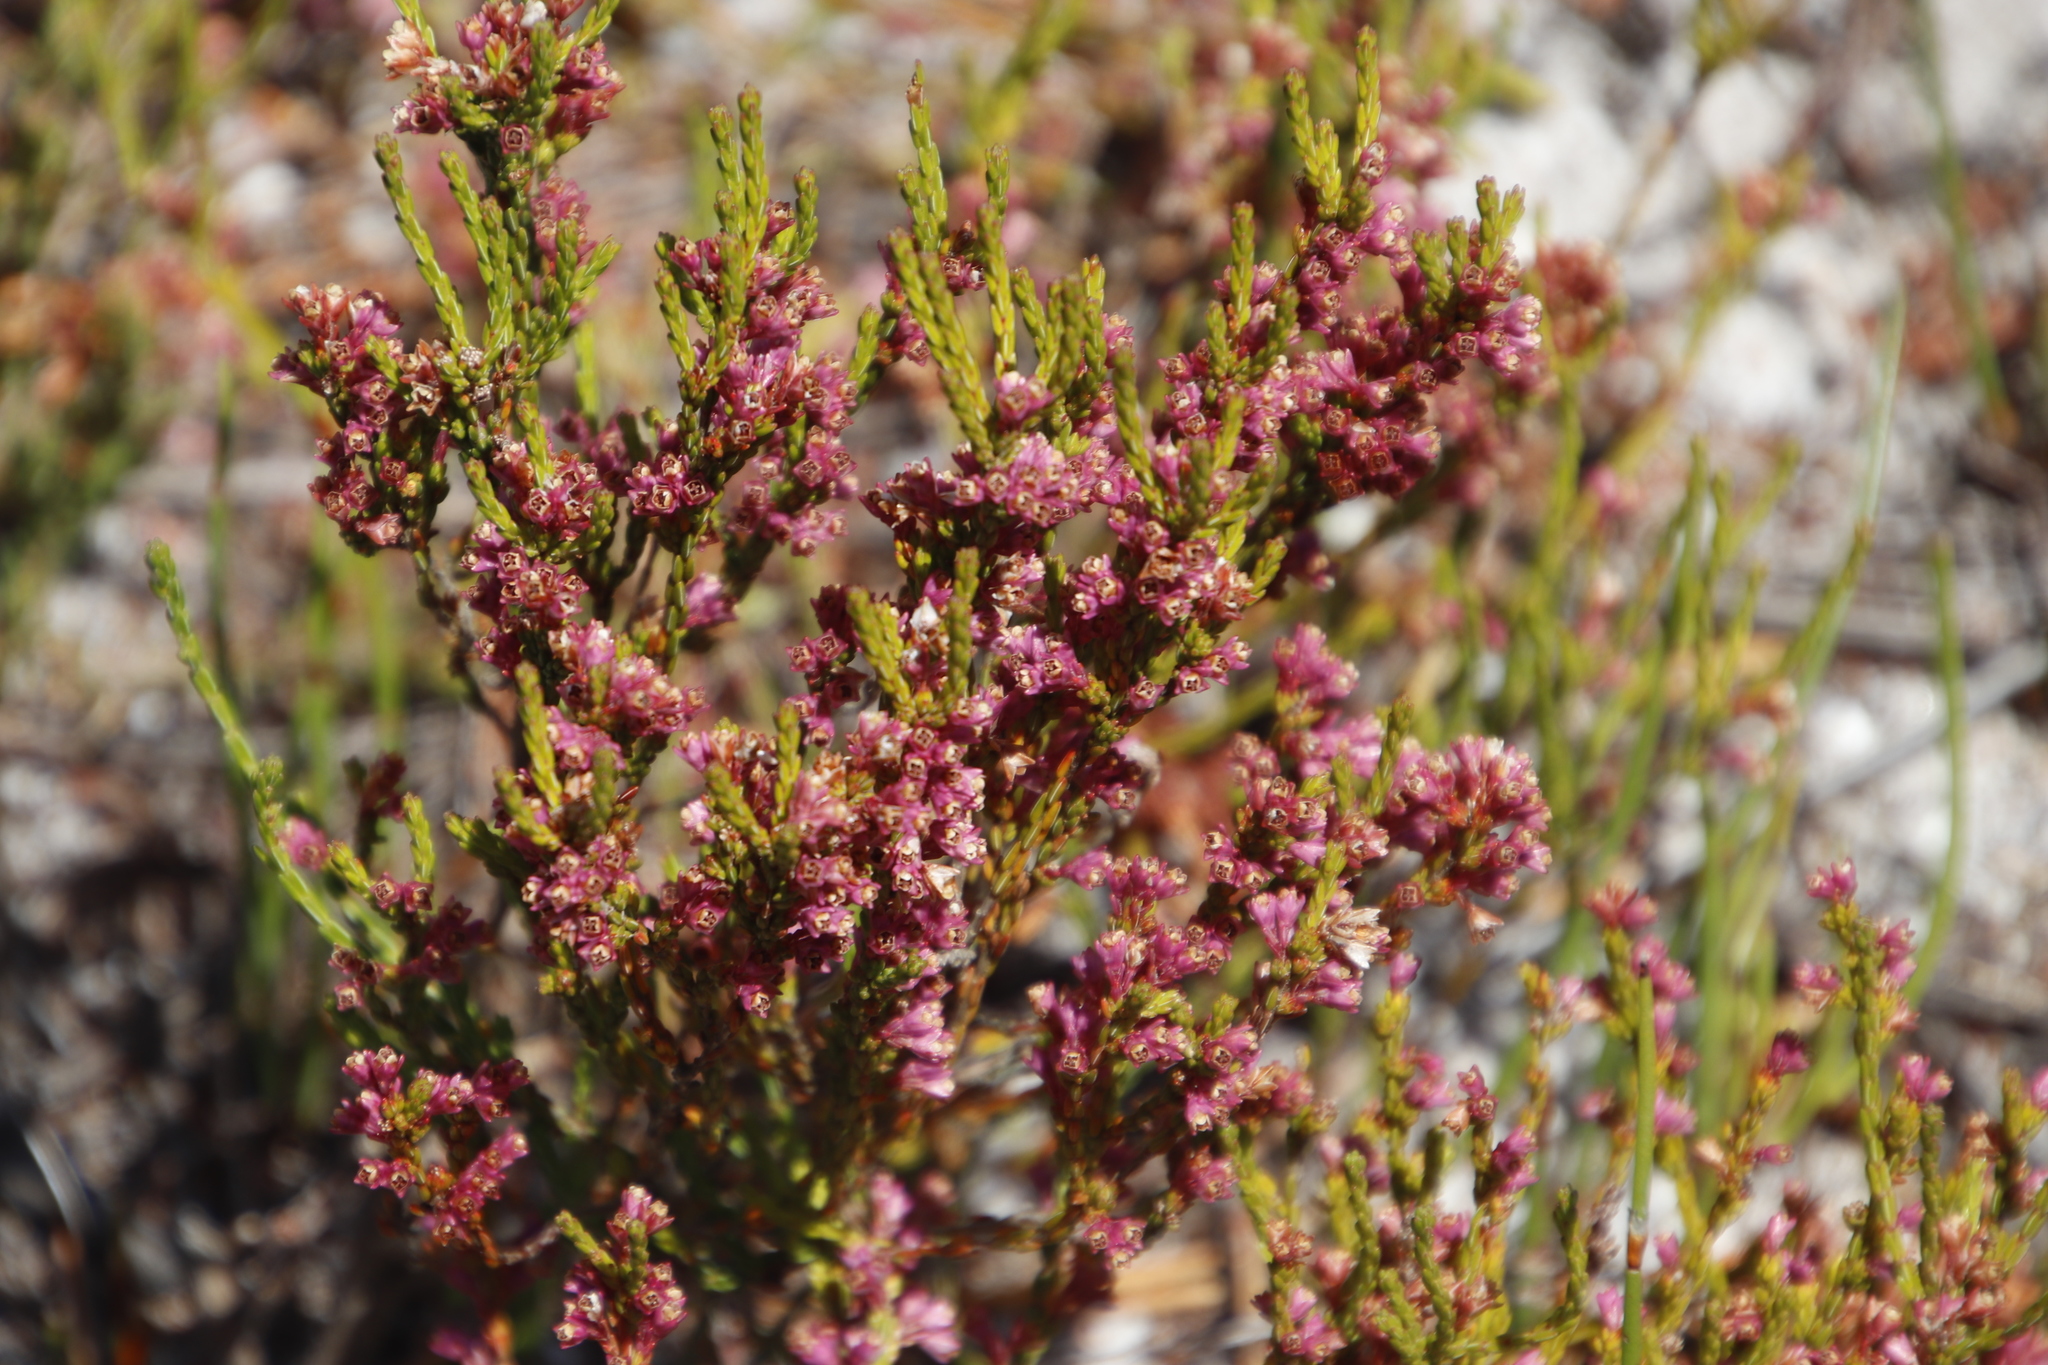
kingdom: Plantae
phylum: Tracheophyta
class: Magnoliopsida
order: Ericales
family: Ericaceae
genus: Erica
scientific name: Erica gnaphaloides
